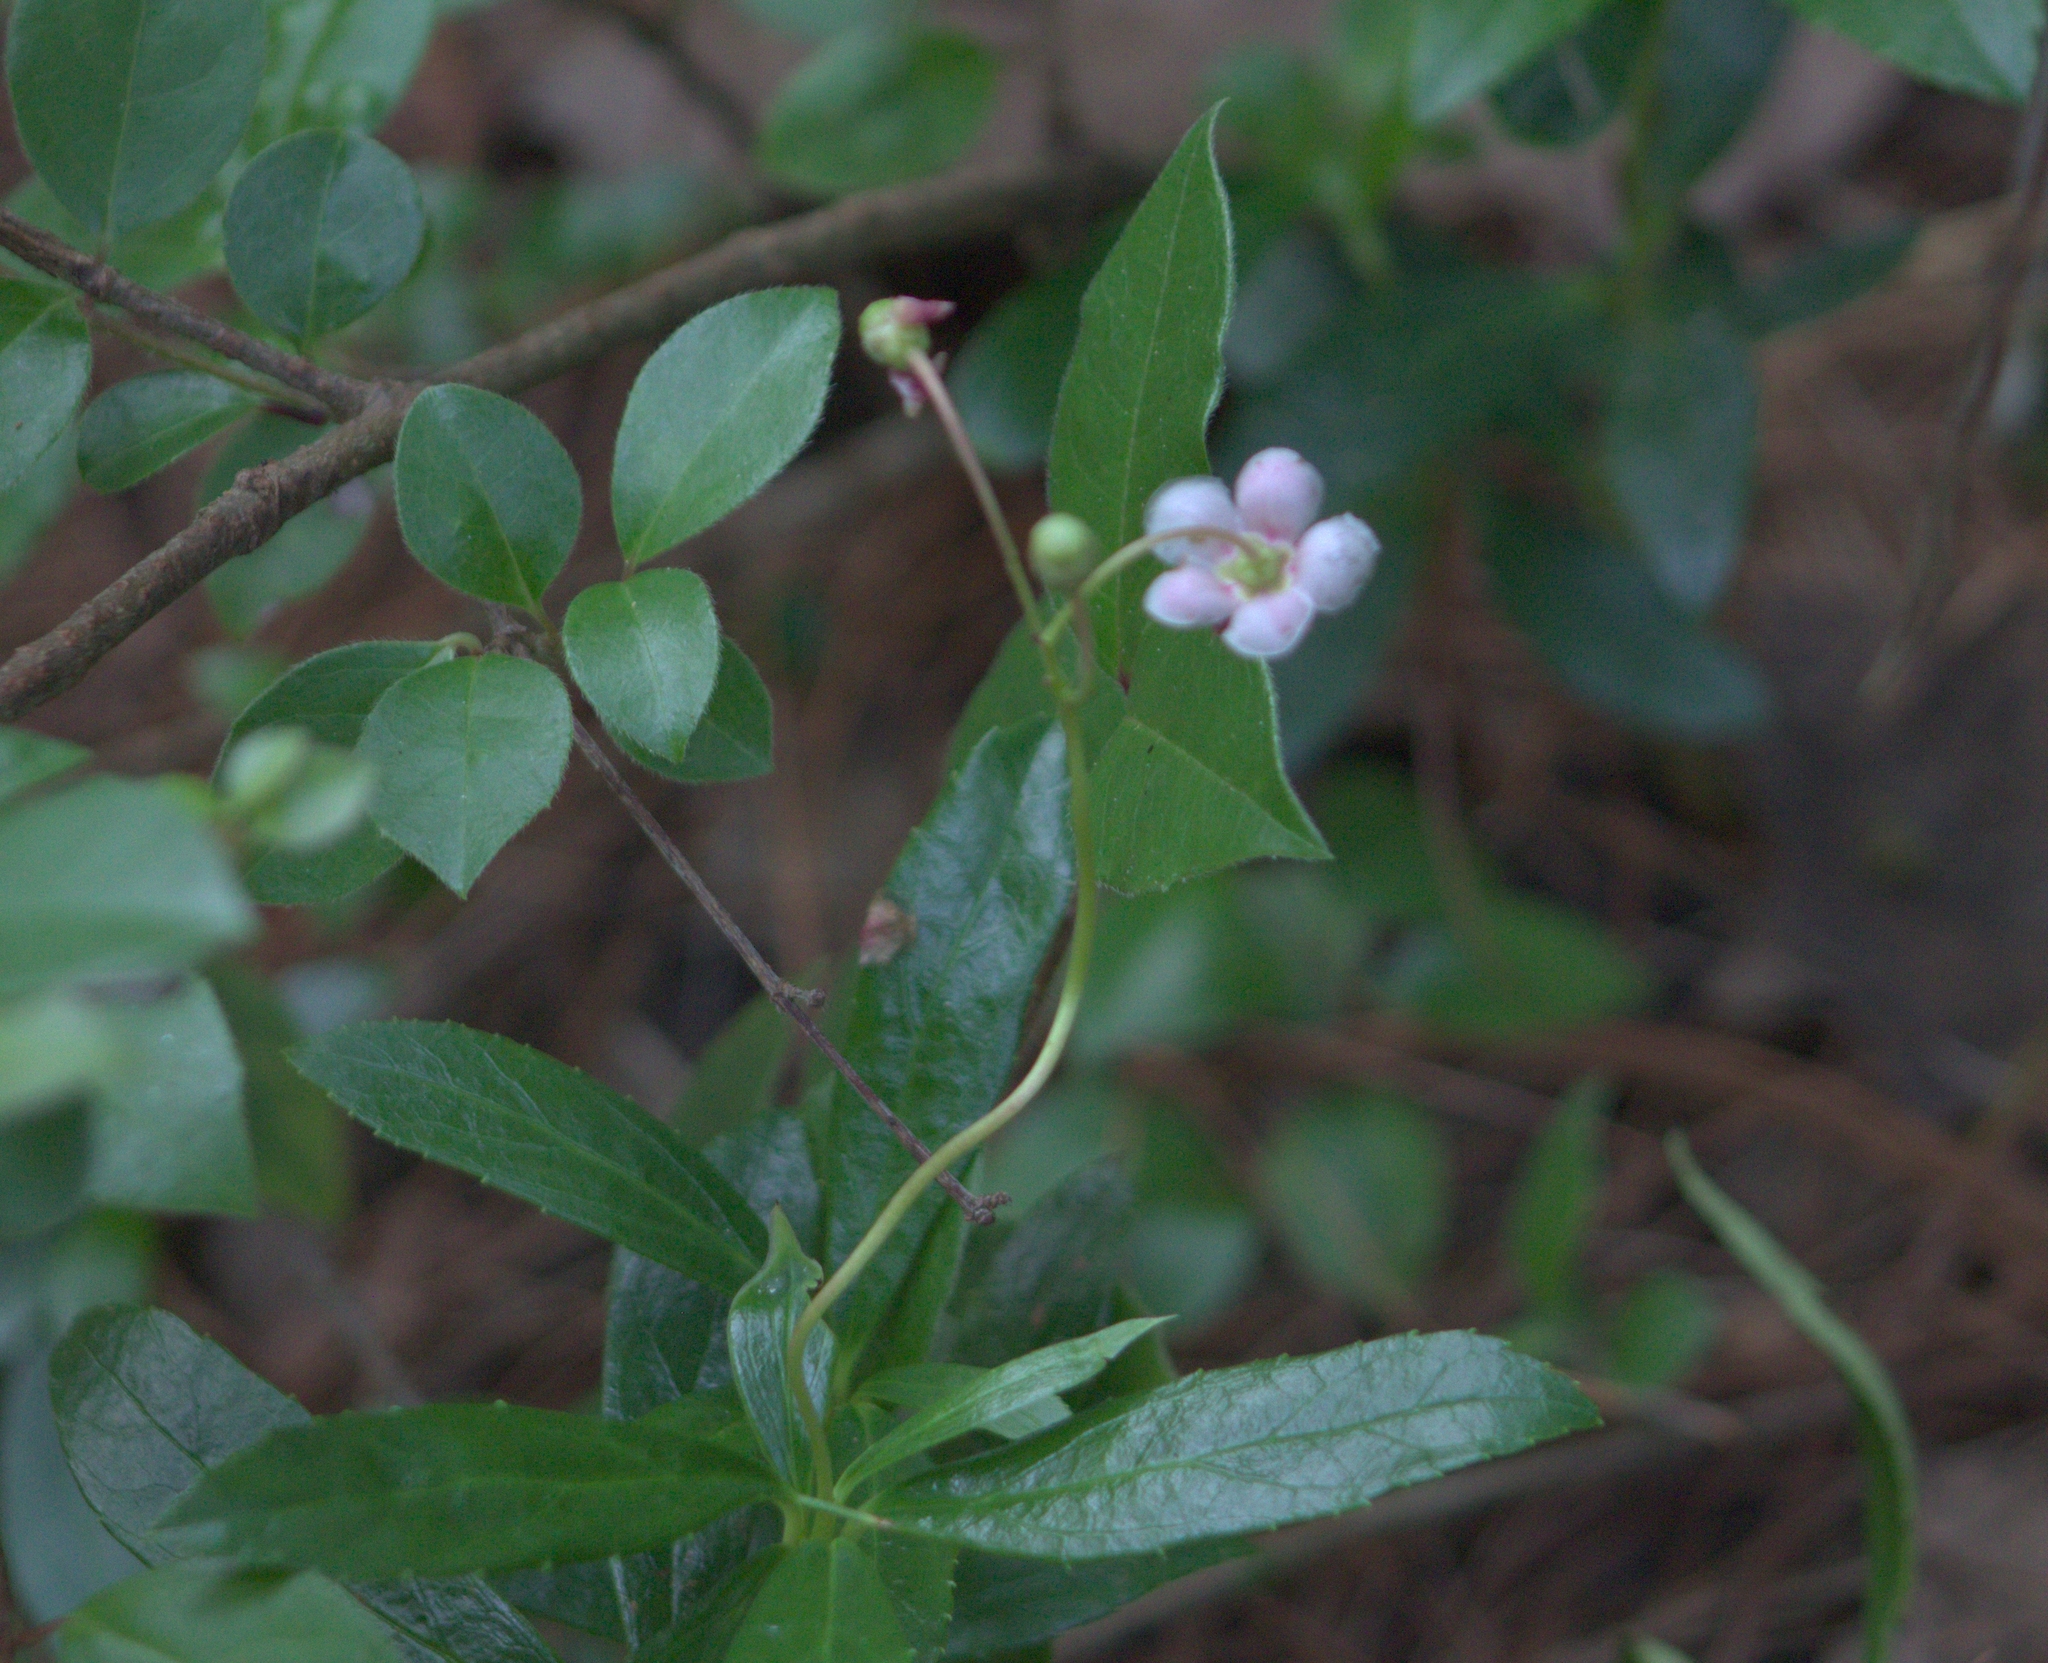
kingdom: Plantae
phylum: Tracheophyta
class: Magnoliopsida
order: Ericales
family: Ericaceae
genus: Chimaphila
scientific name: Chimaphila umbellata
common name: Pipsissewa
